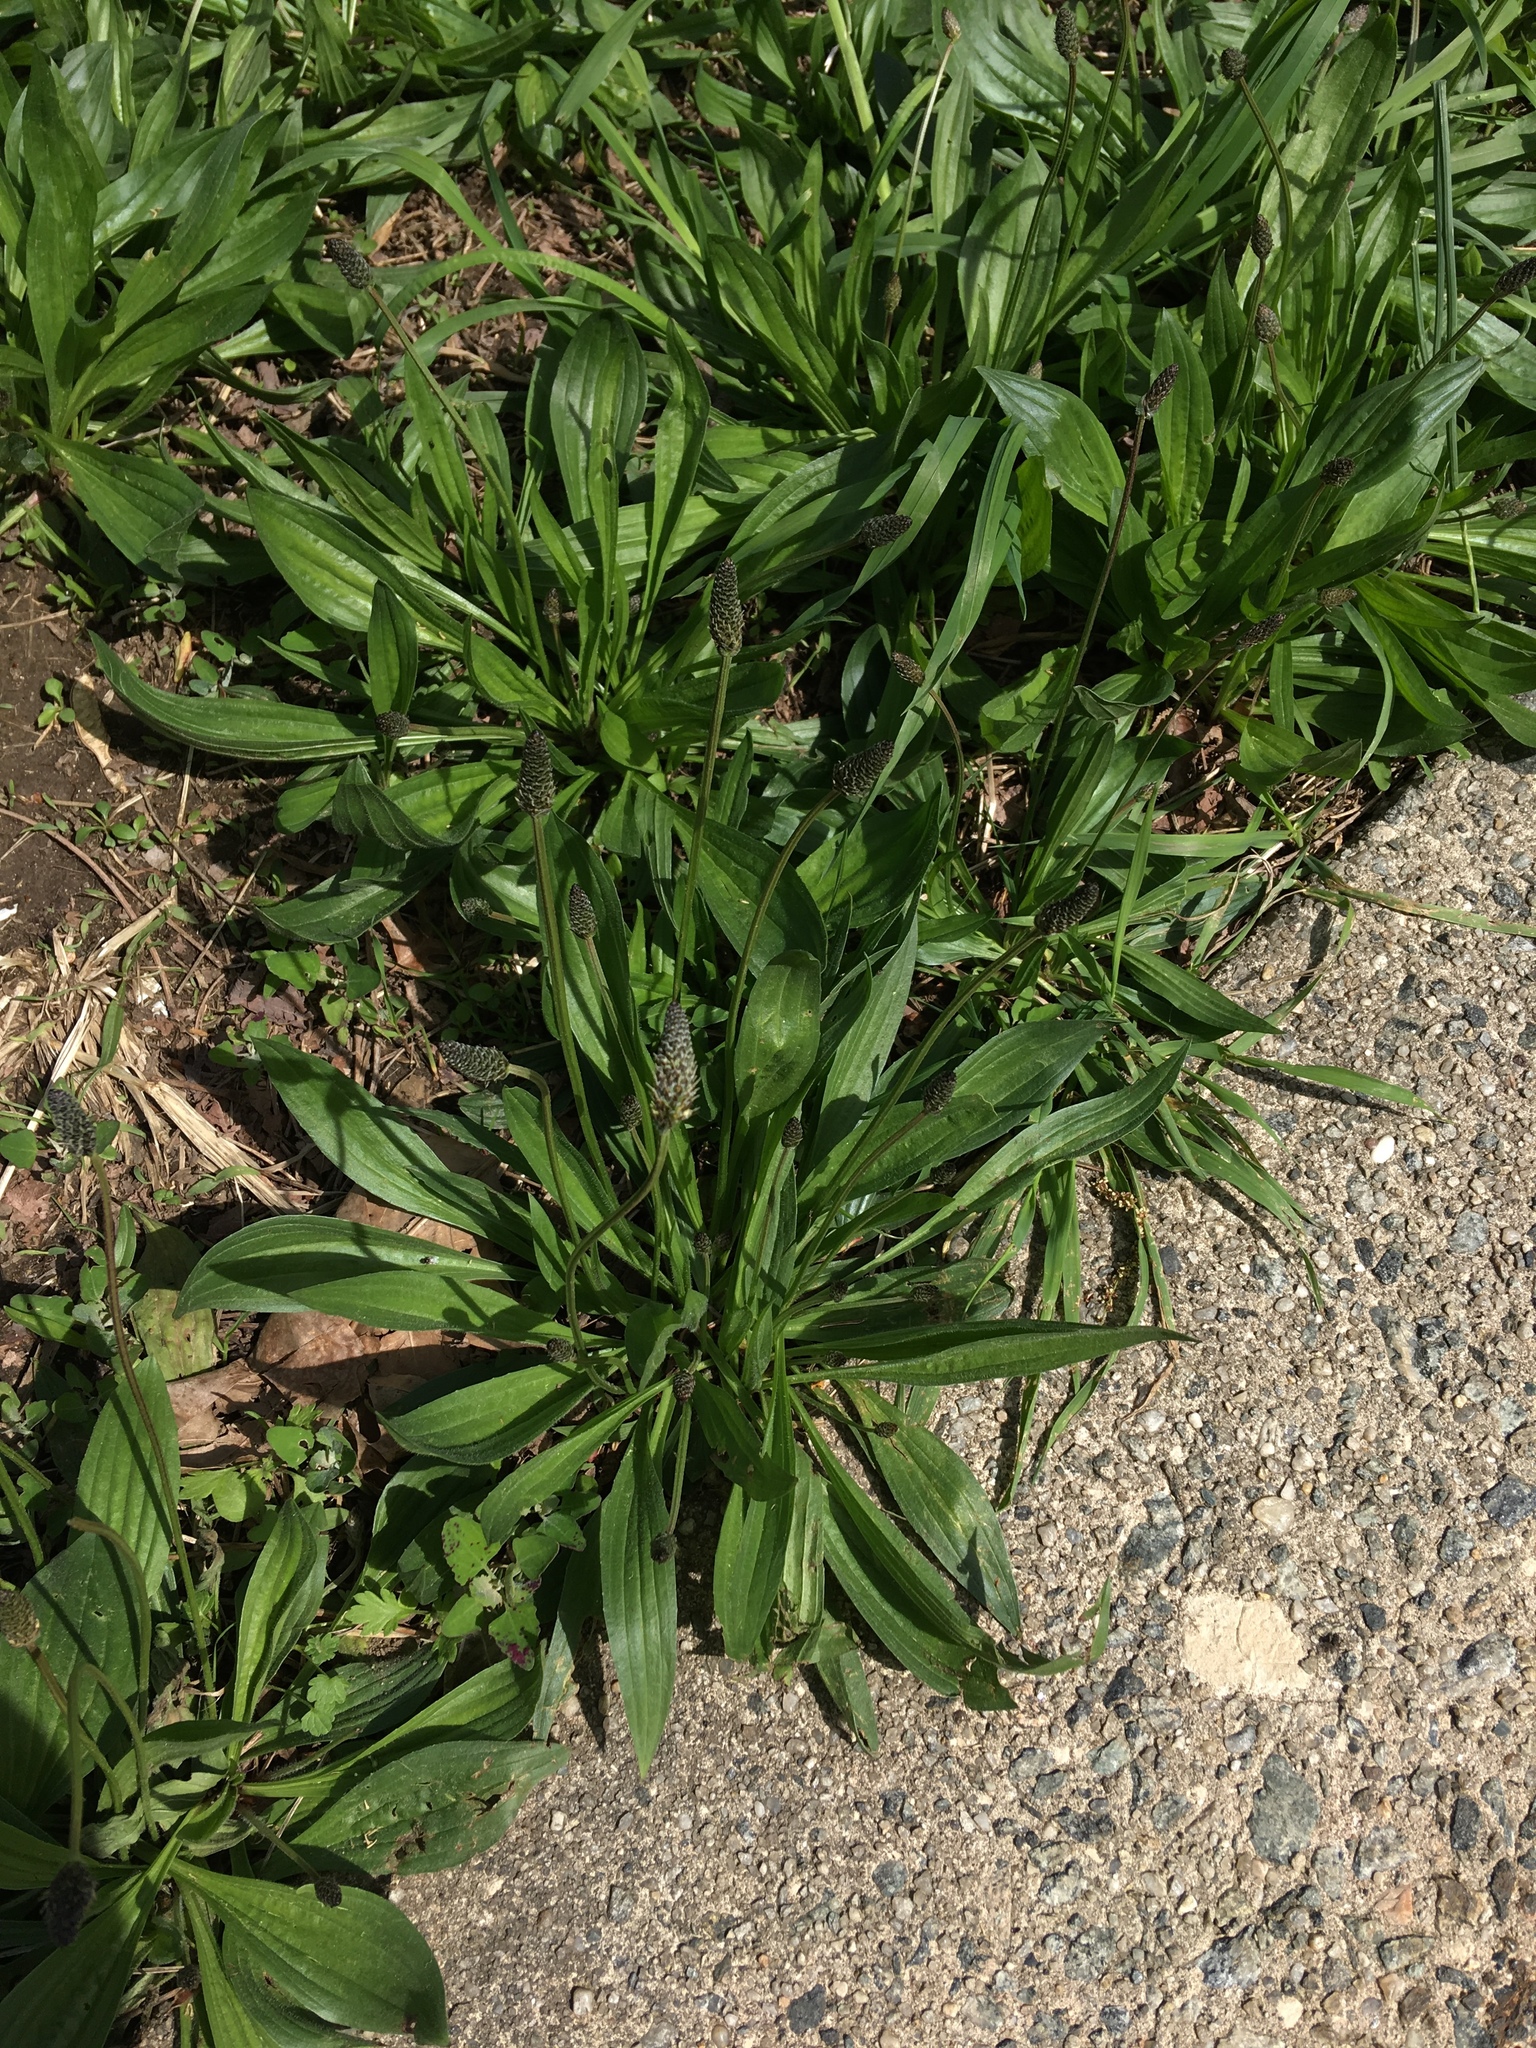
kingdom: Plantae
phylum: Tracheophyta
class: Magnoliopsida
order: Lamiales
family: Plantaginaceae
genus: Plantago
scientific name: Plantago lanceolata
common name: Ribwort plantain
